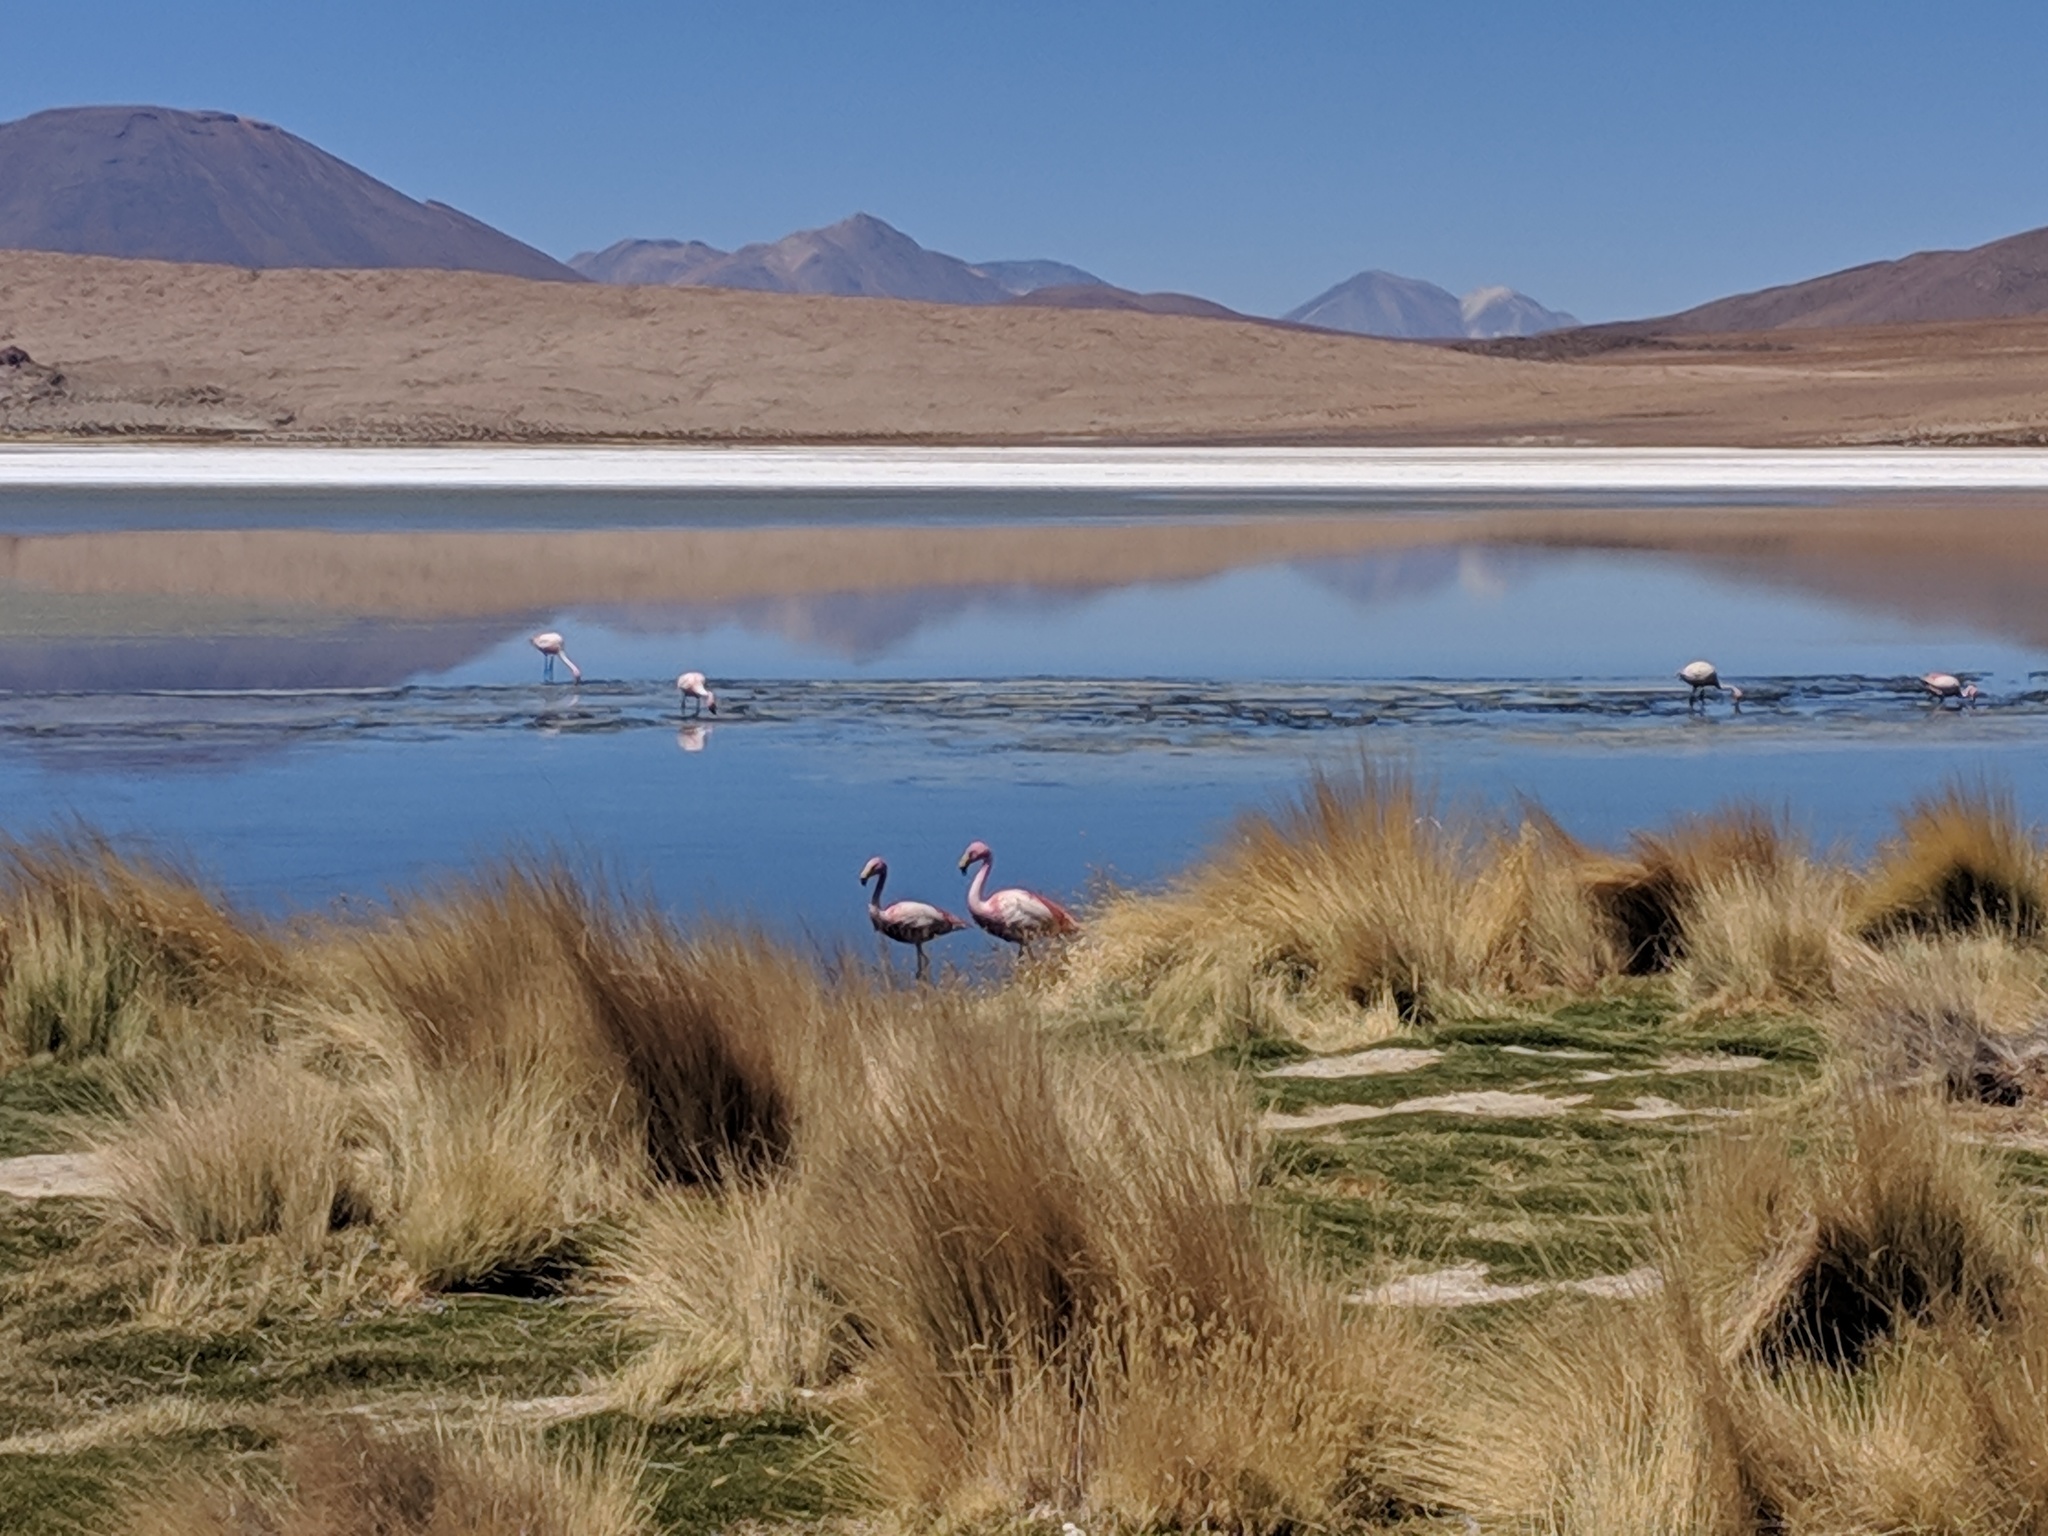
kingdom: Animalia
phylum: Chordata
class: Aves
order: Phoenicopteriformes
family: Phoenicopteridae
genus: Phoenicoparrus
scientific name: Phoenicoparrus jamesi
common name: James's flamingo
